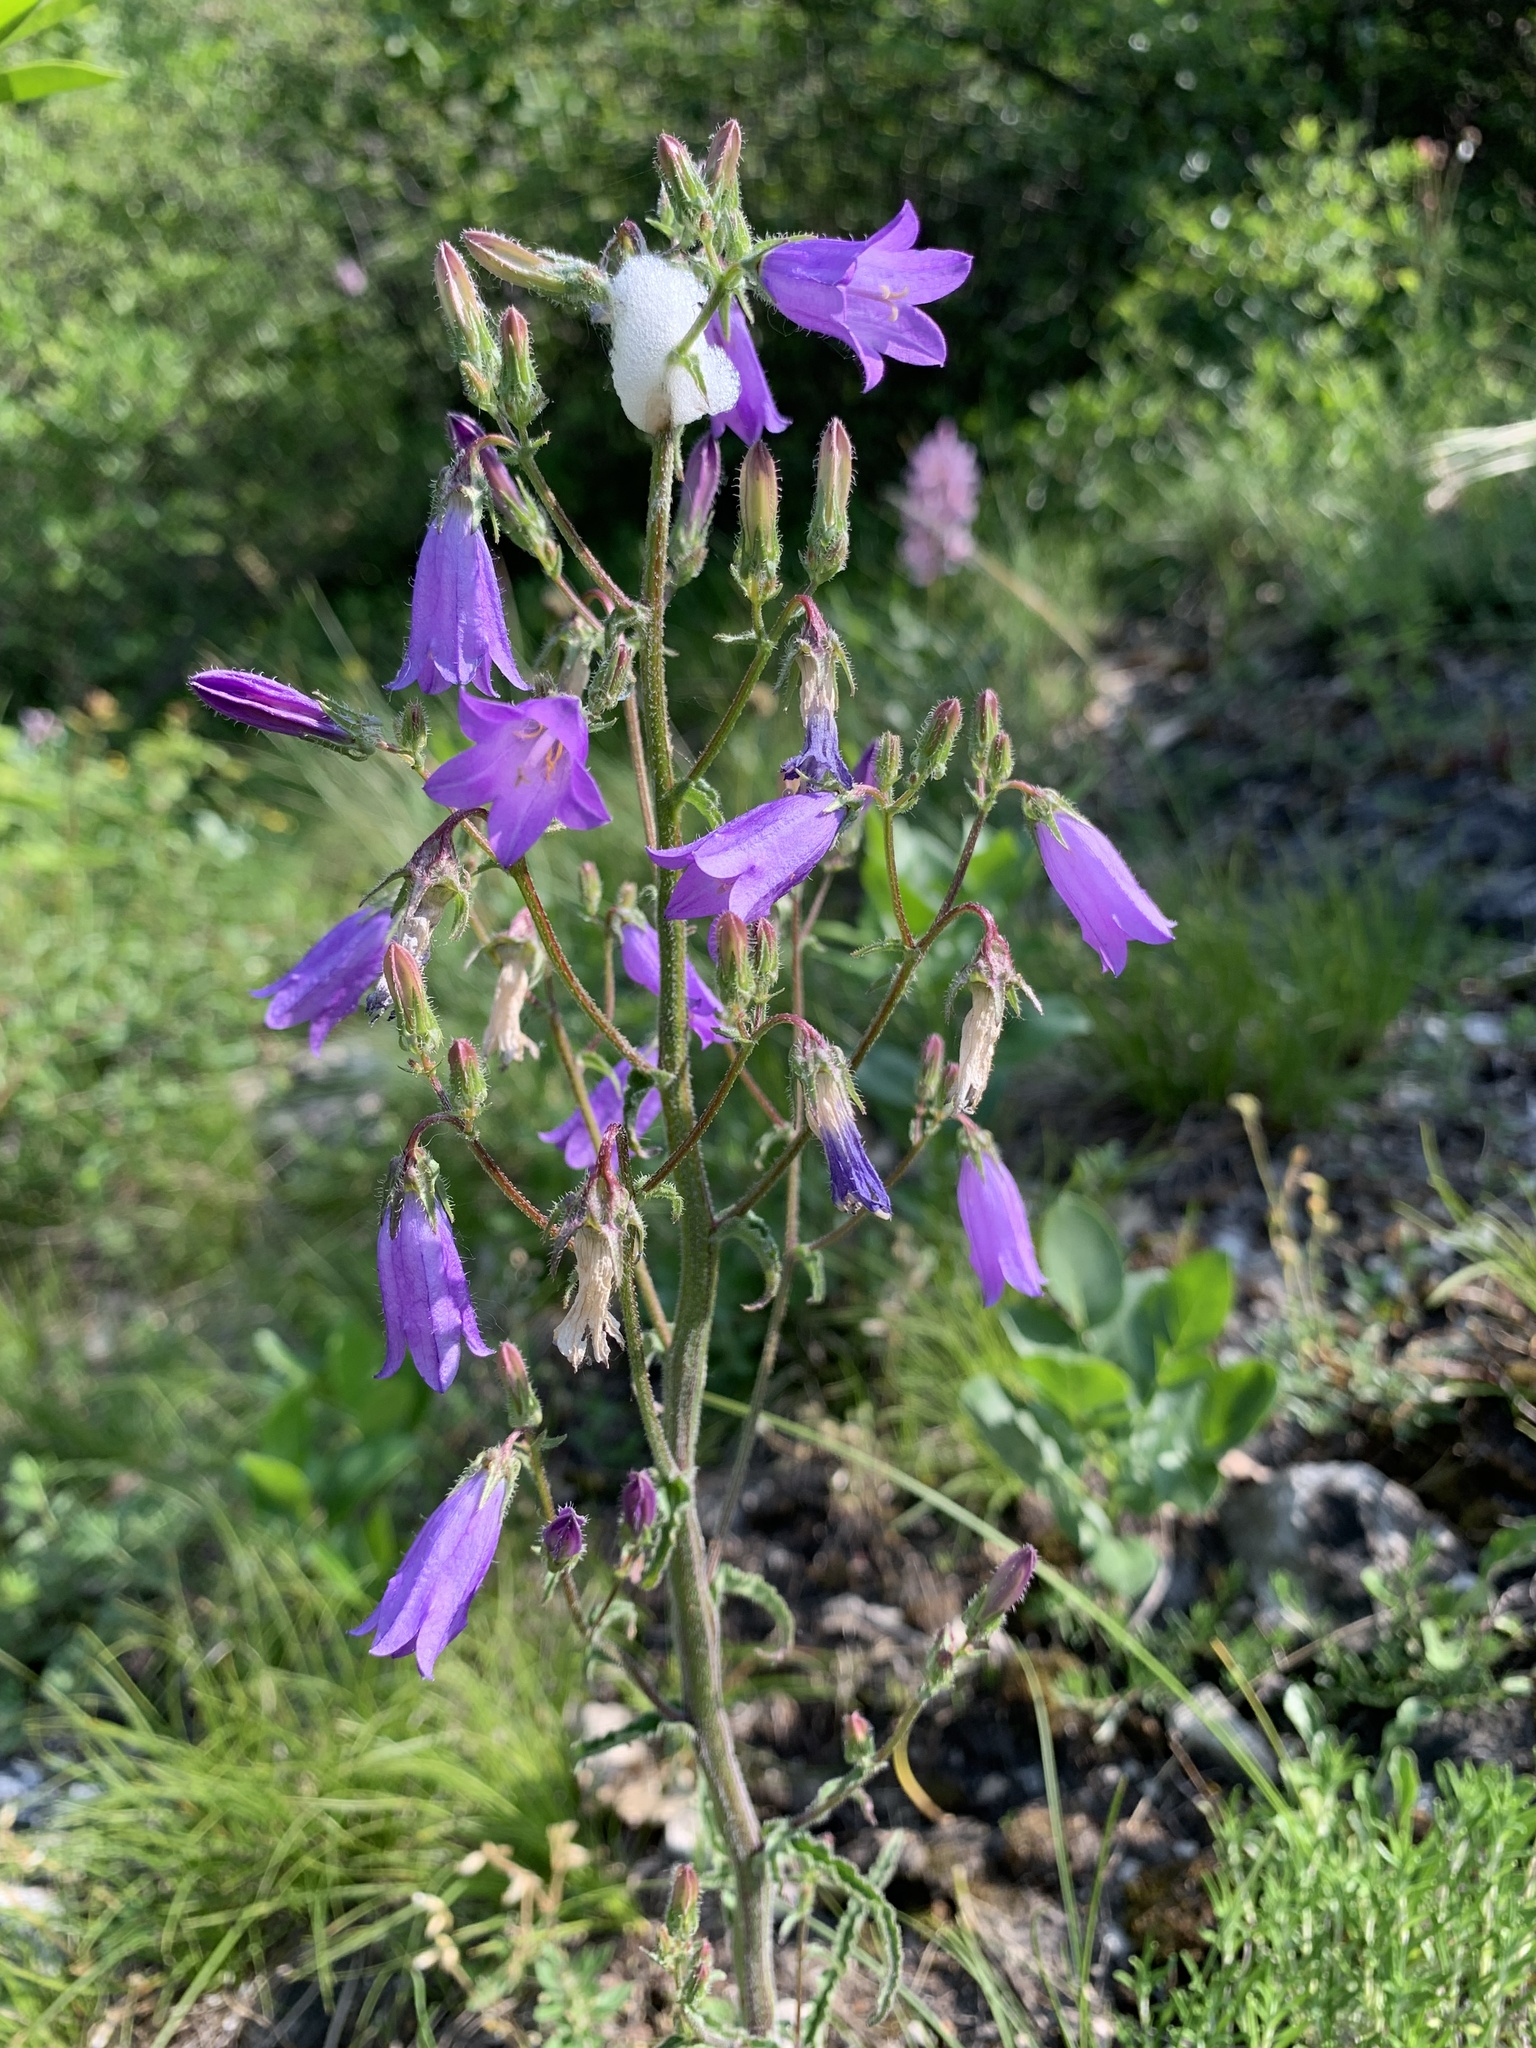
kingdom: Plantae
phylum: Tracheophyta
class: Magnoliopsida
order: Asterales
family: Campanulaceae
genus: Campanula
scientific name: Campanula sibirica
